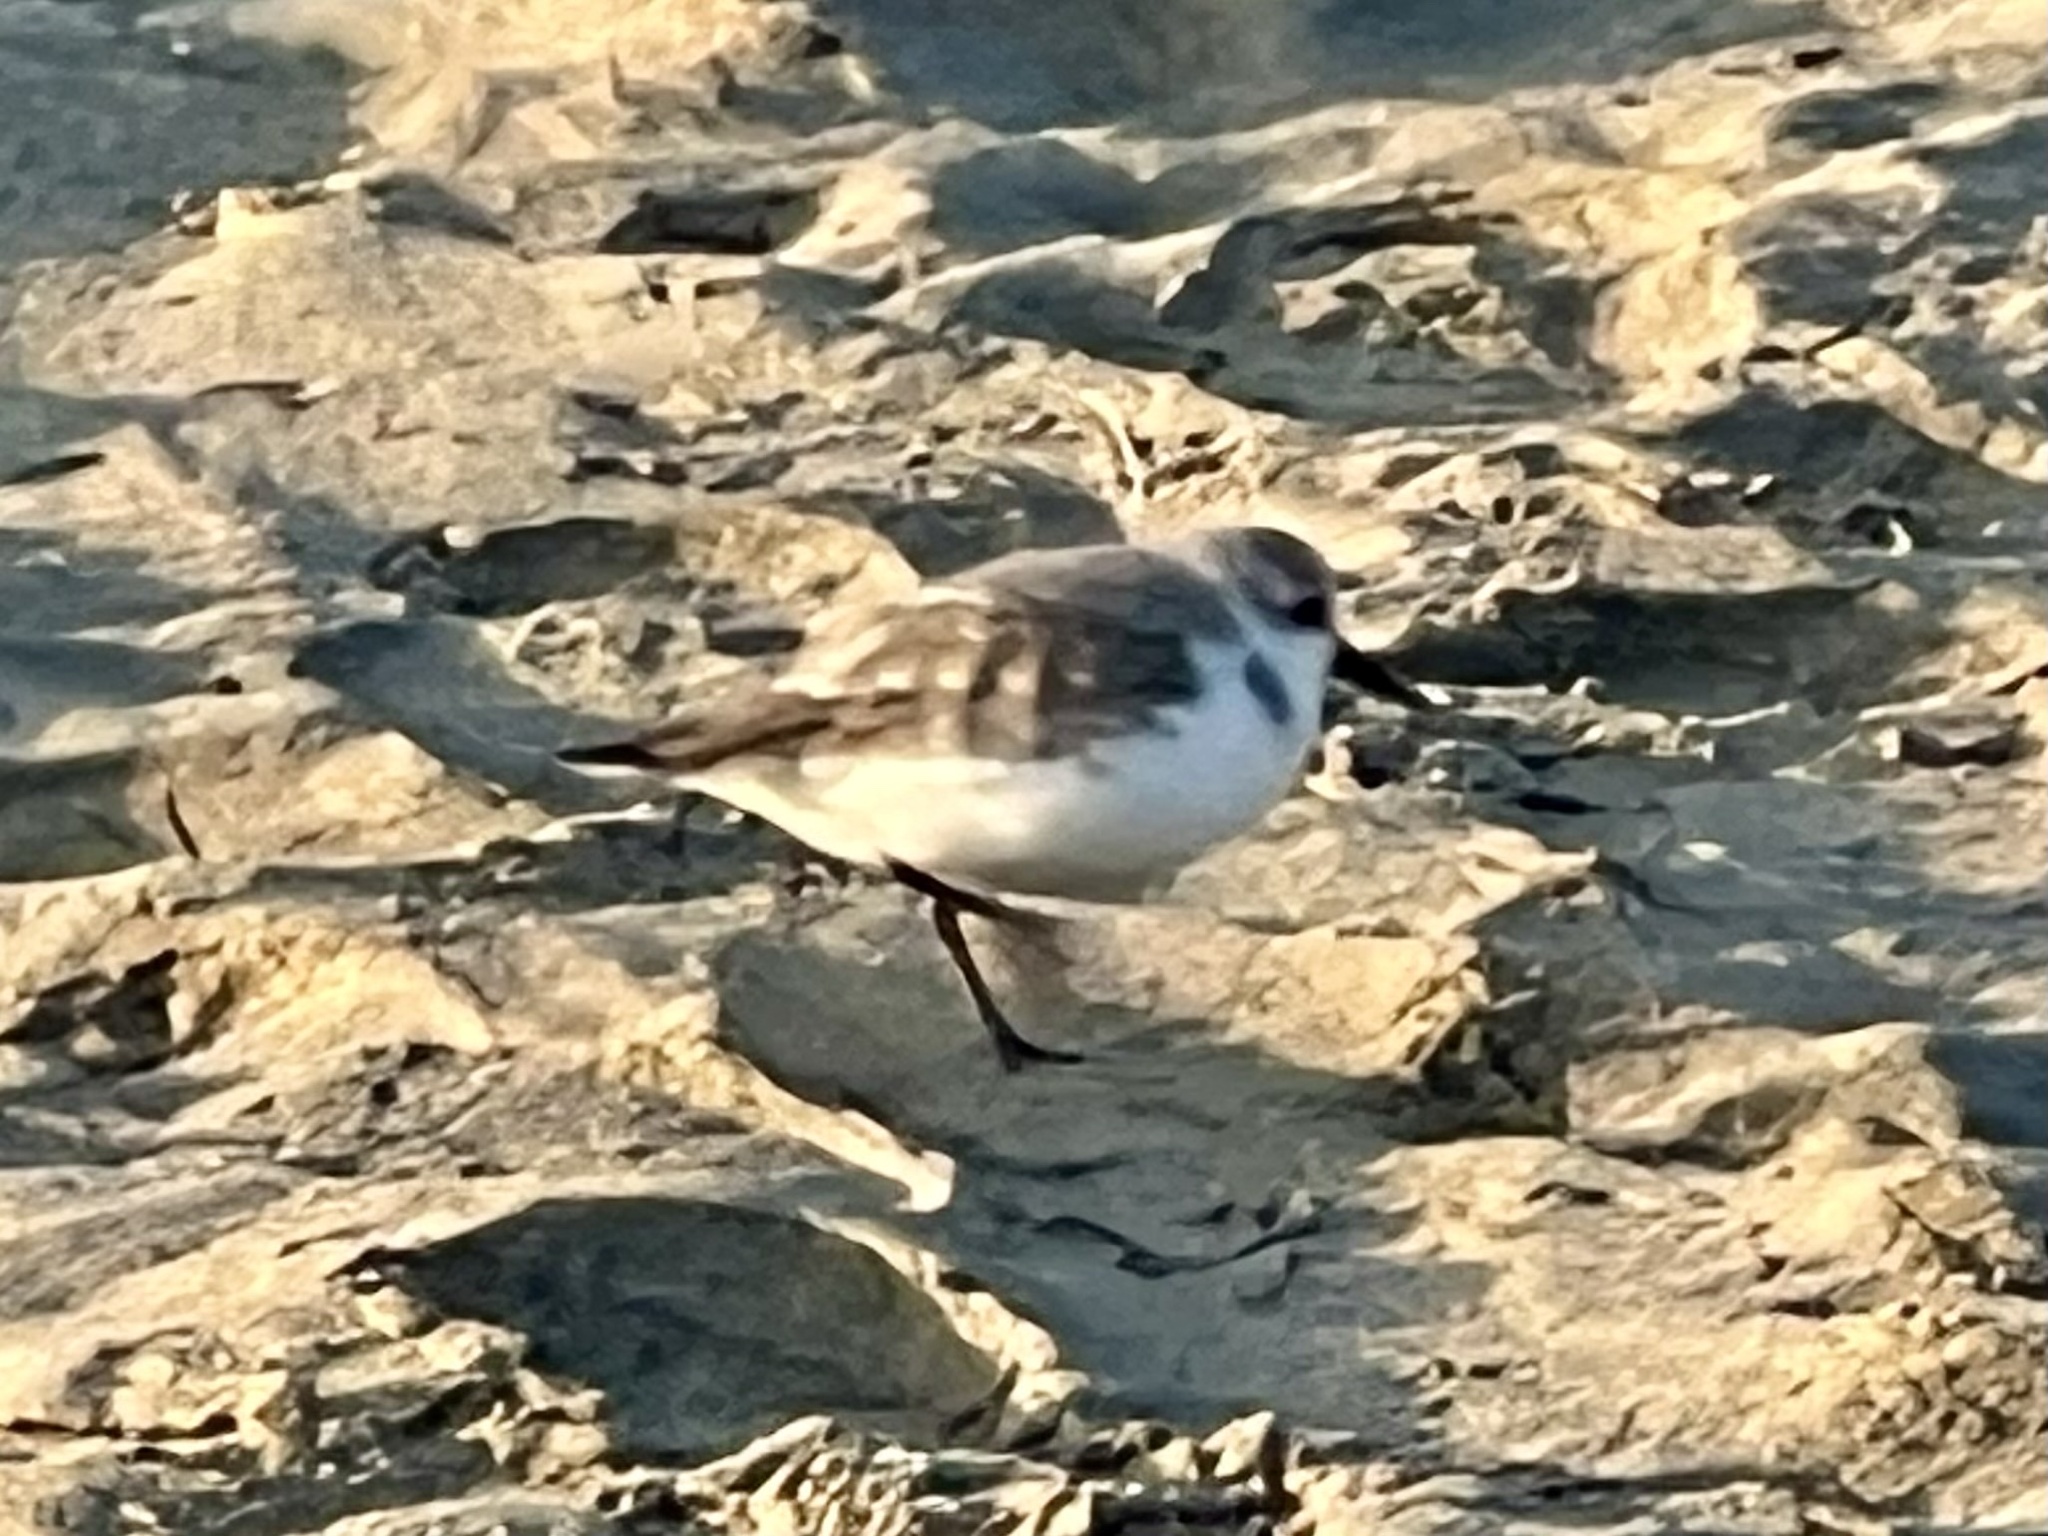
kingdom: Animalia
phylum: Chordata
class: Aves
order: Charadriiformes
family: Scolopacidae
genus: Calidris
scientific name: Calidris alba
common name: Sanderling
